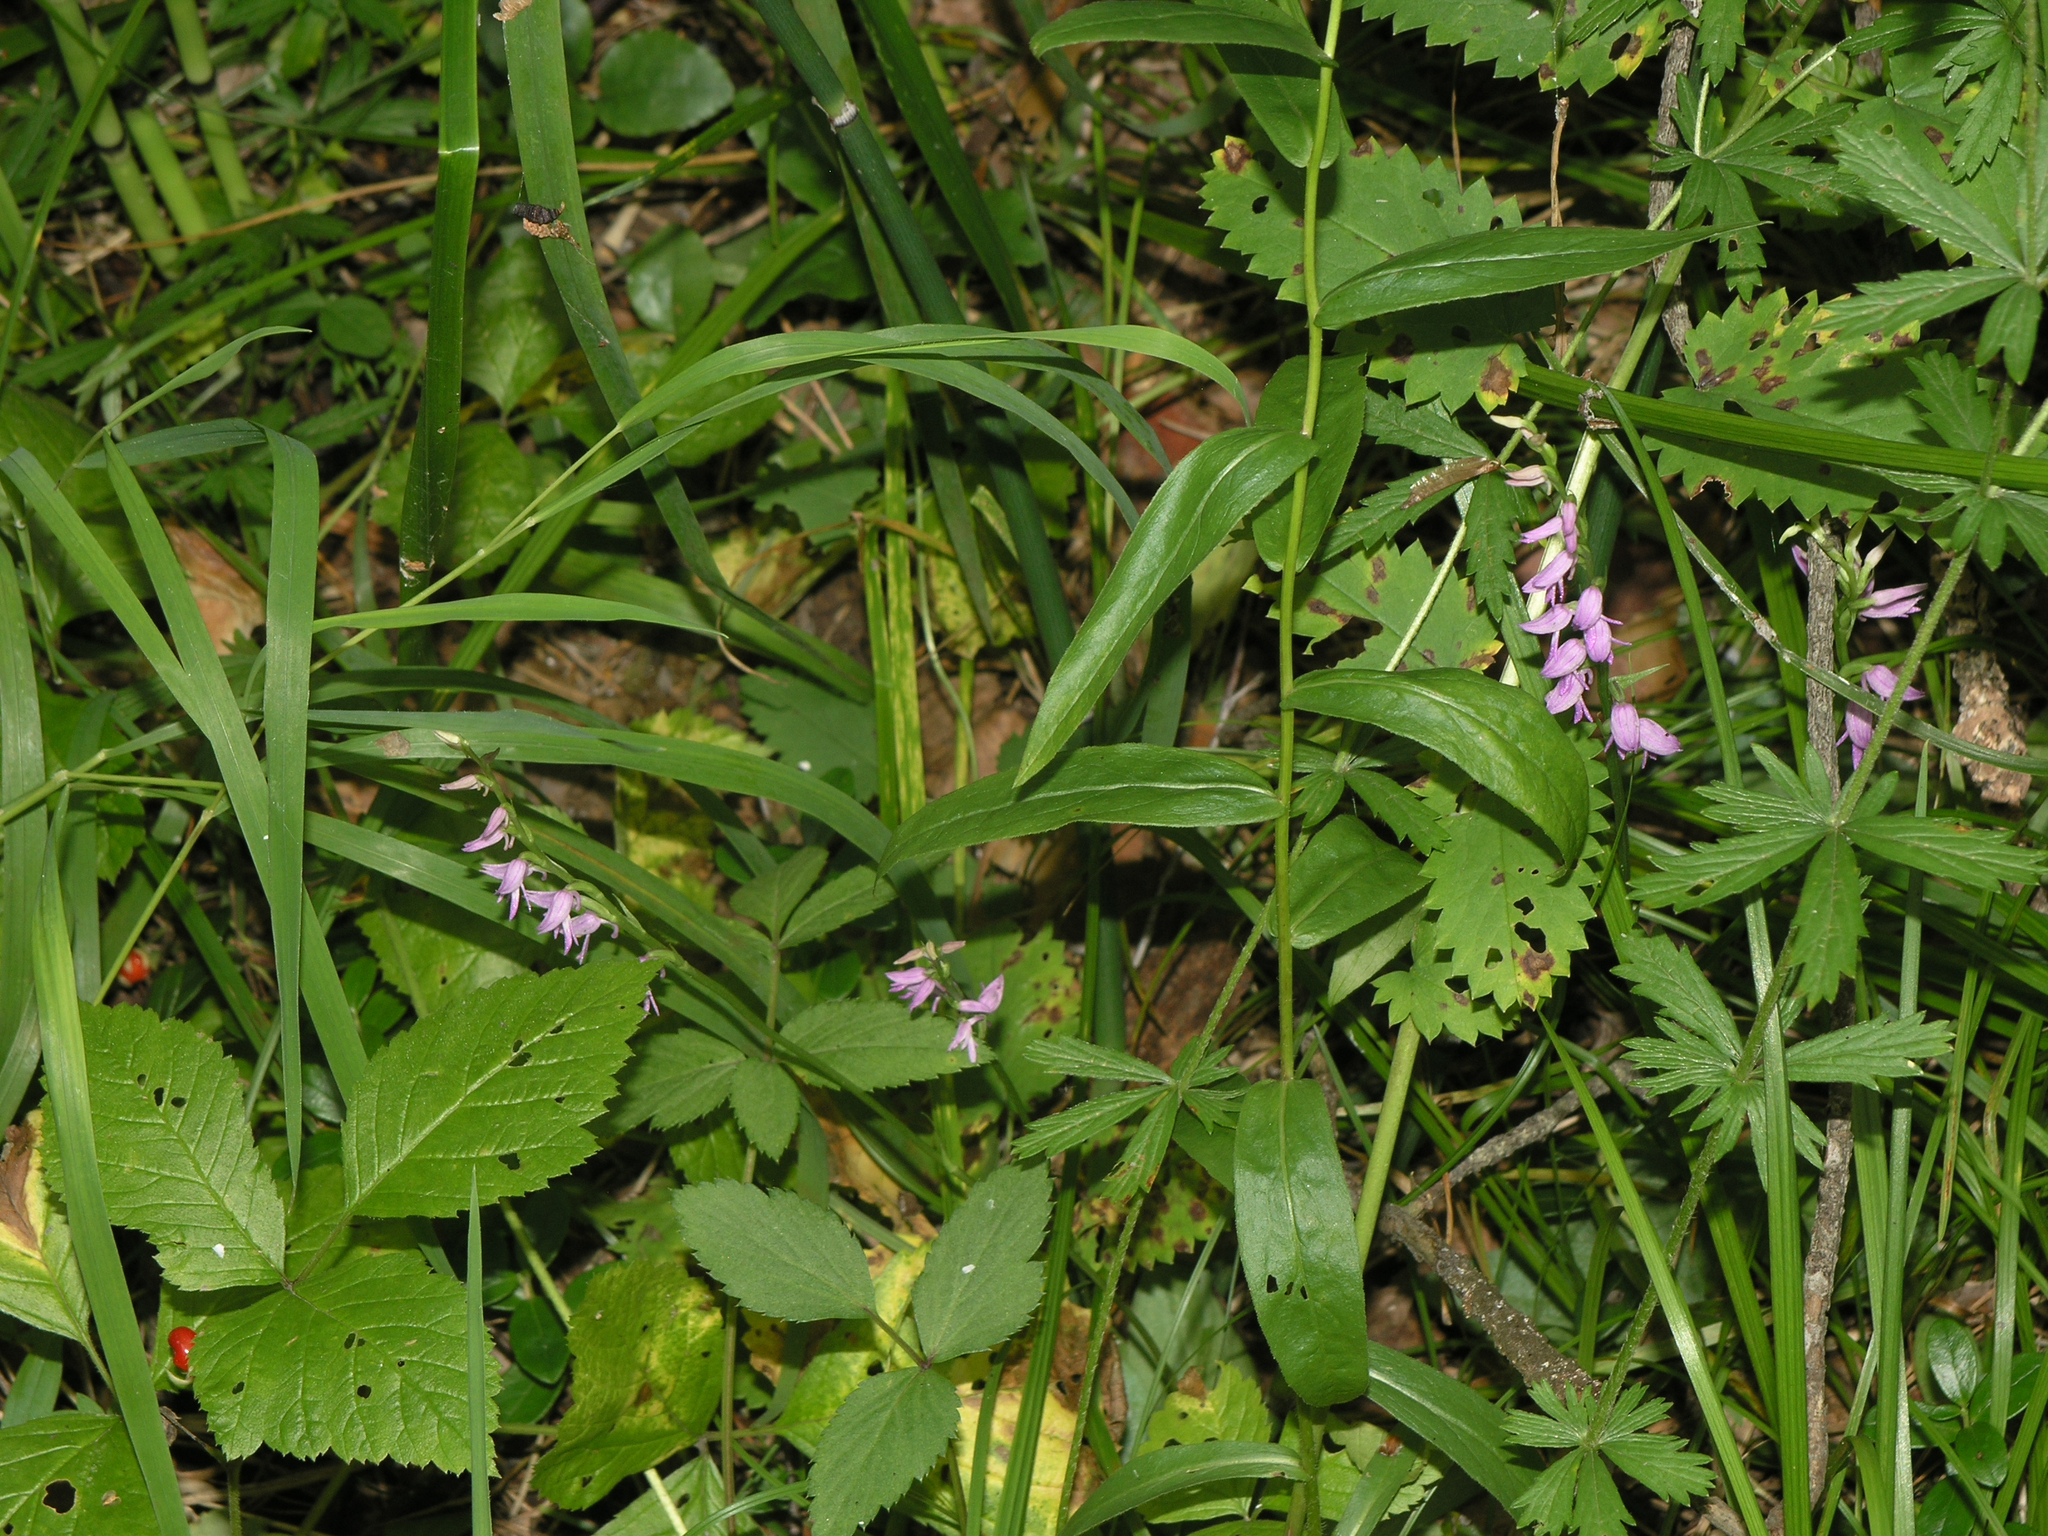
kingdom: Plantae
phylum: Tracheophyta
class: Liliopsida
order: Asparagales
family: Orchidaceae
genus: Hemipilia
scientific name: Hemipilia cucullata
